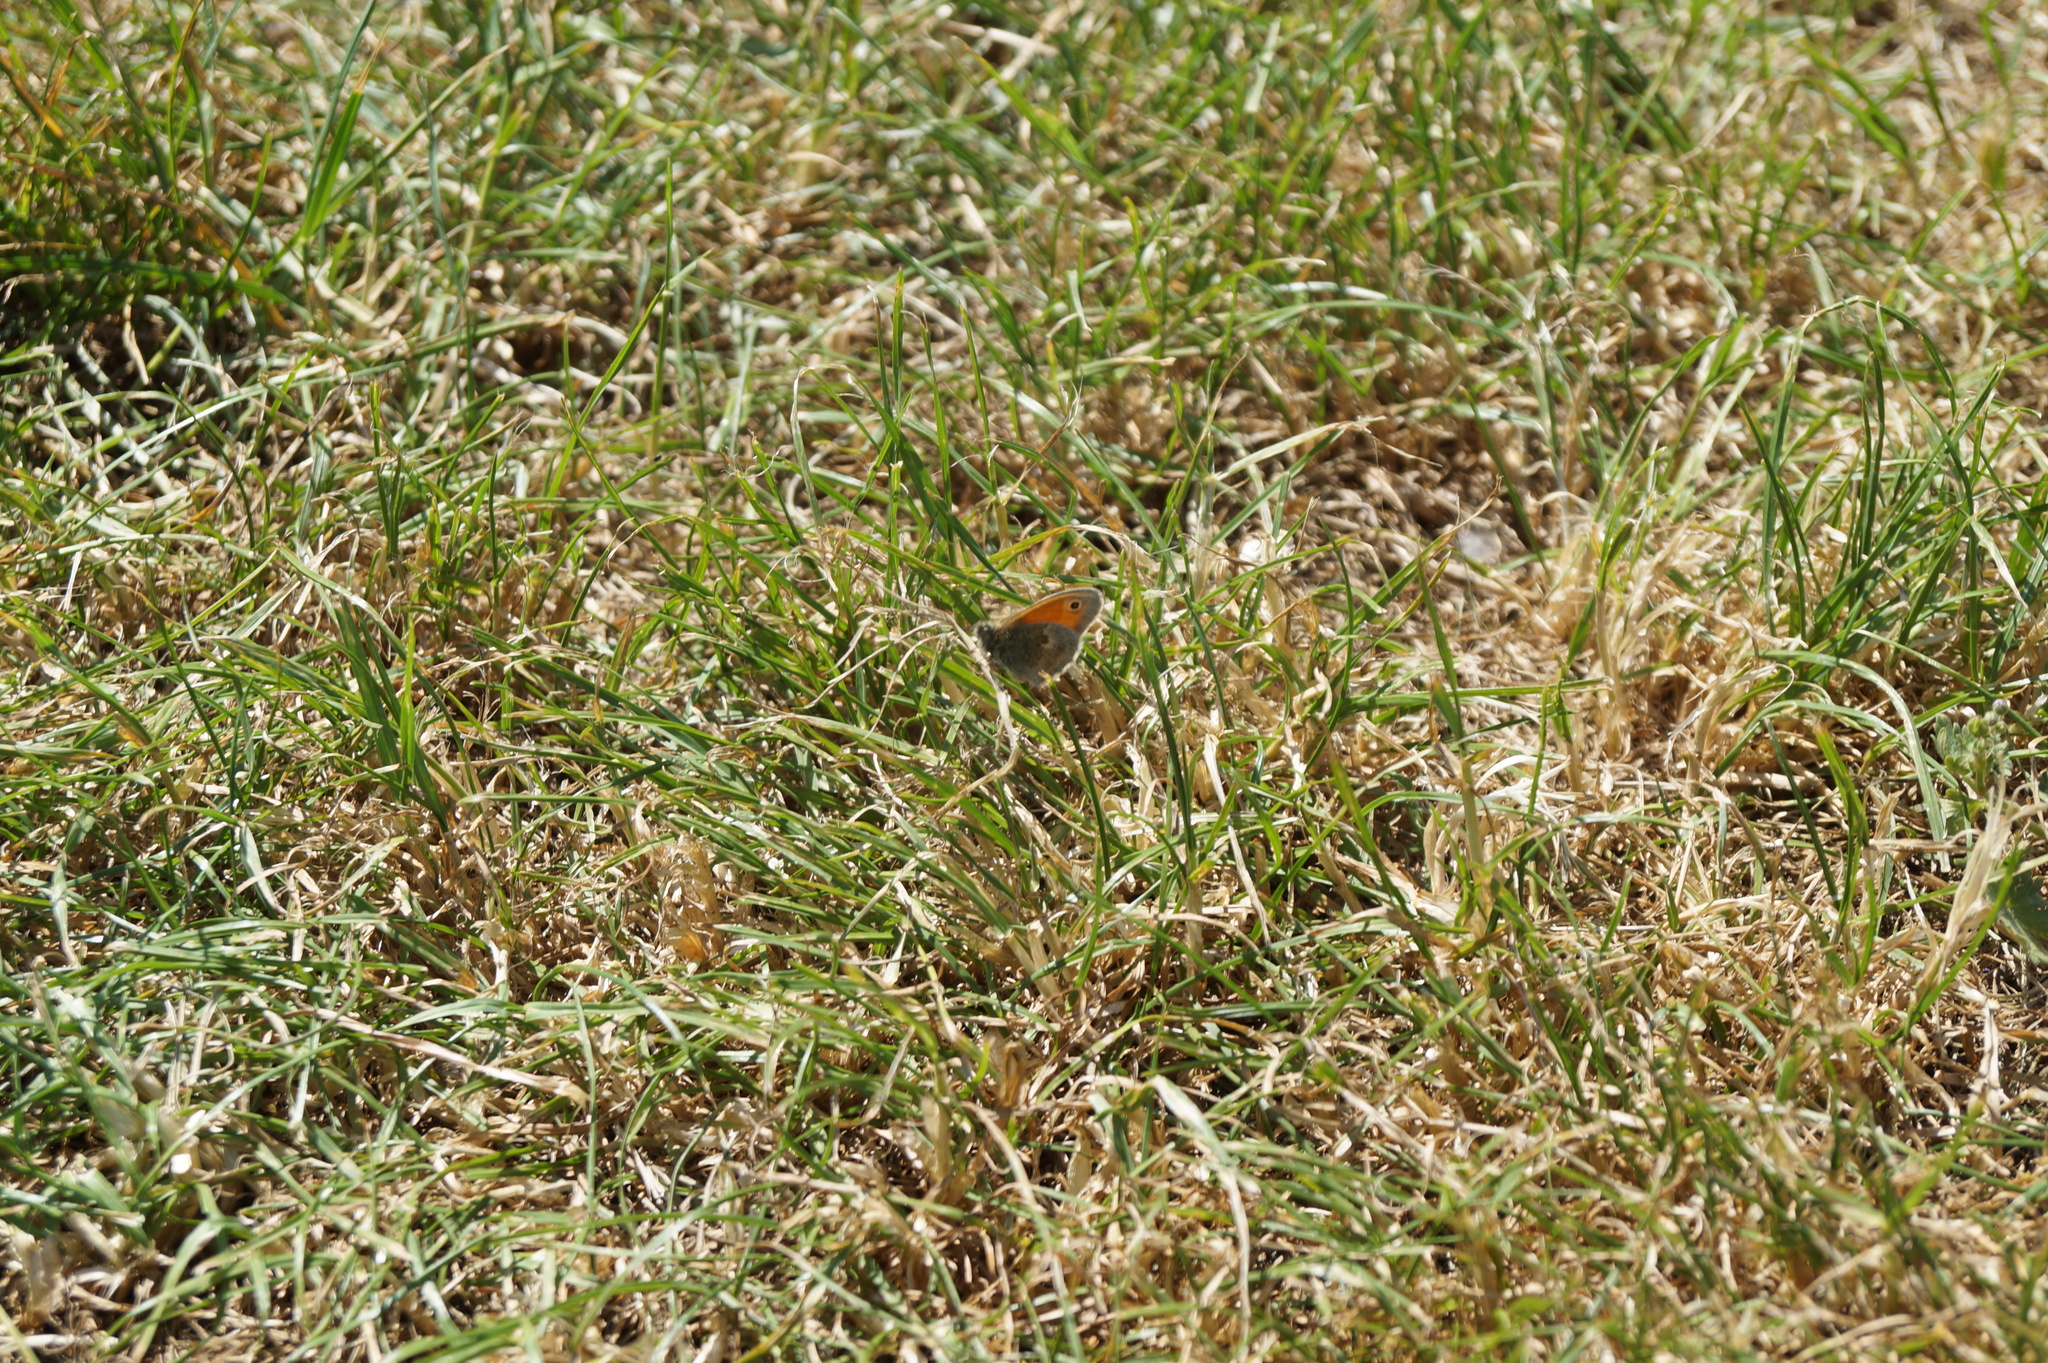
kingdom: Animalia
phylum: Arthropoda
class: Insecta
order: Lepidoptera
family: Nymphalidae
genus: Coenonympha
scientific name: Coenonympha pamphilus
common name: Small heath
